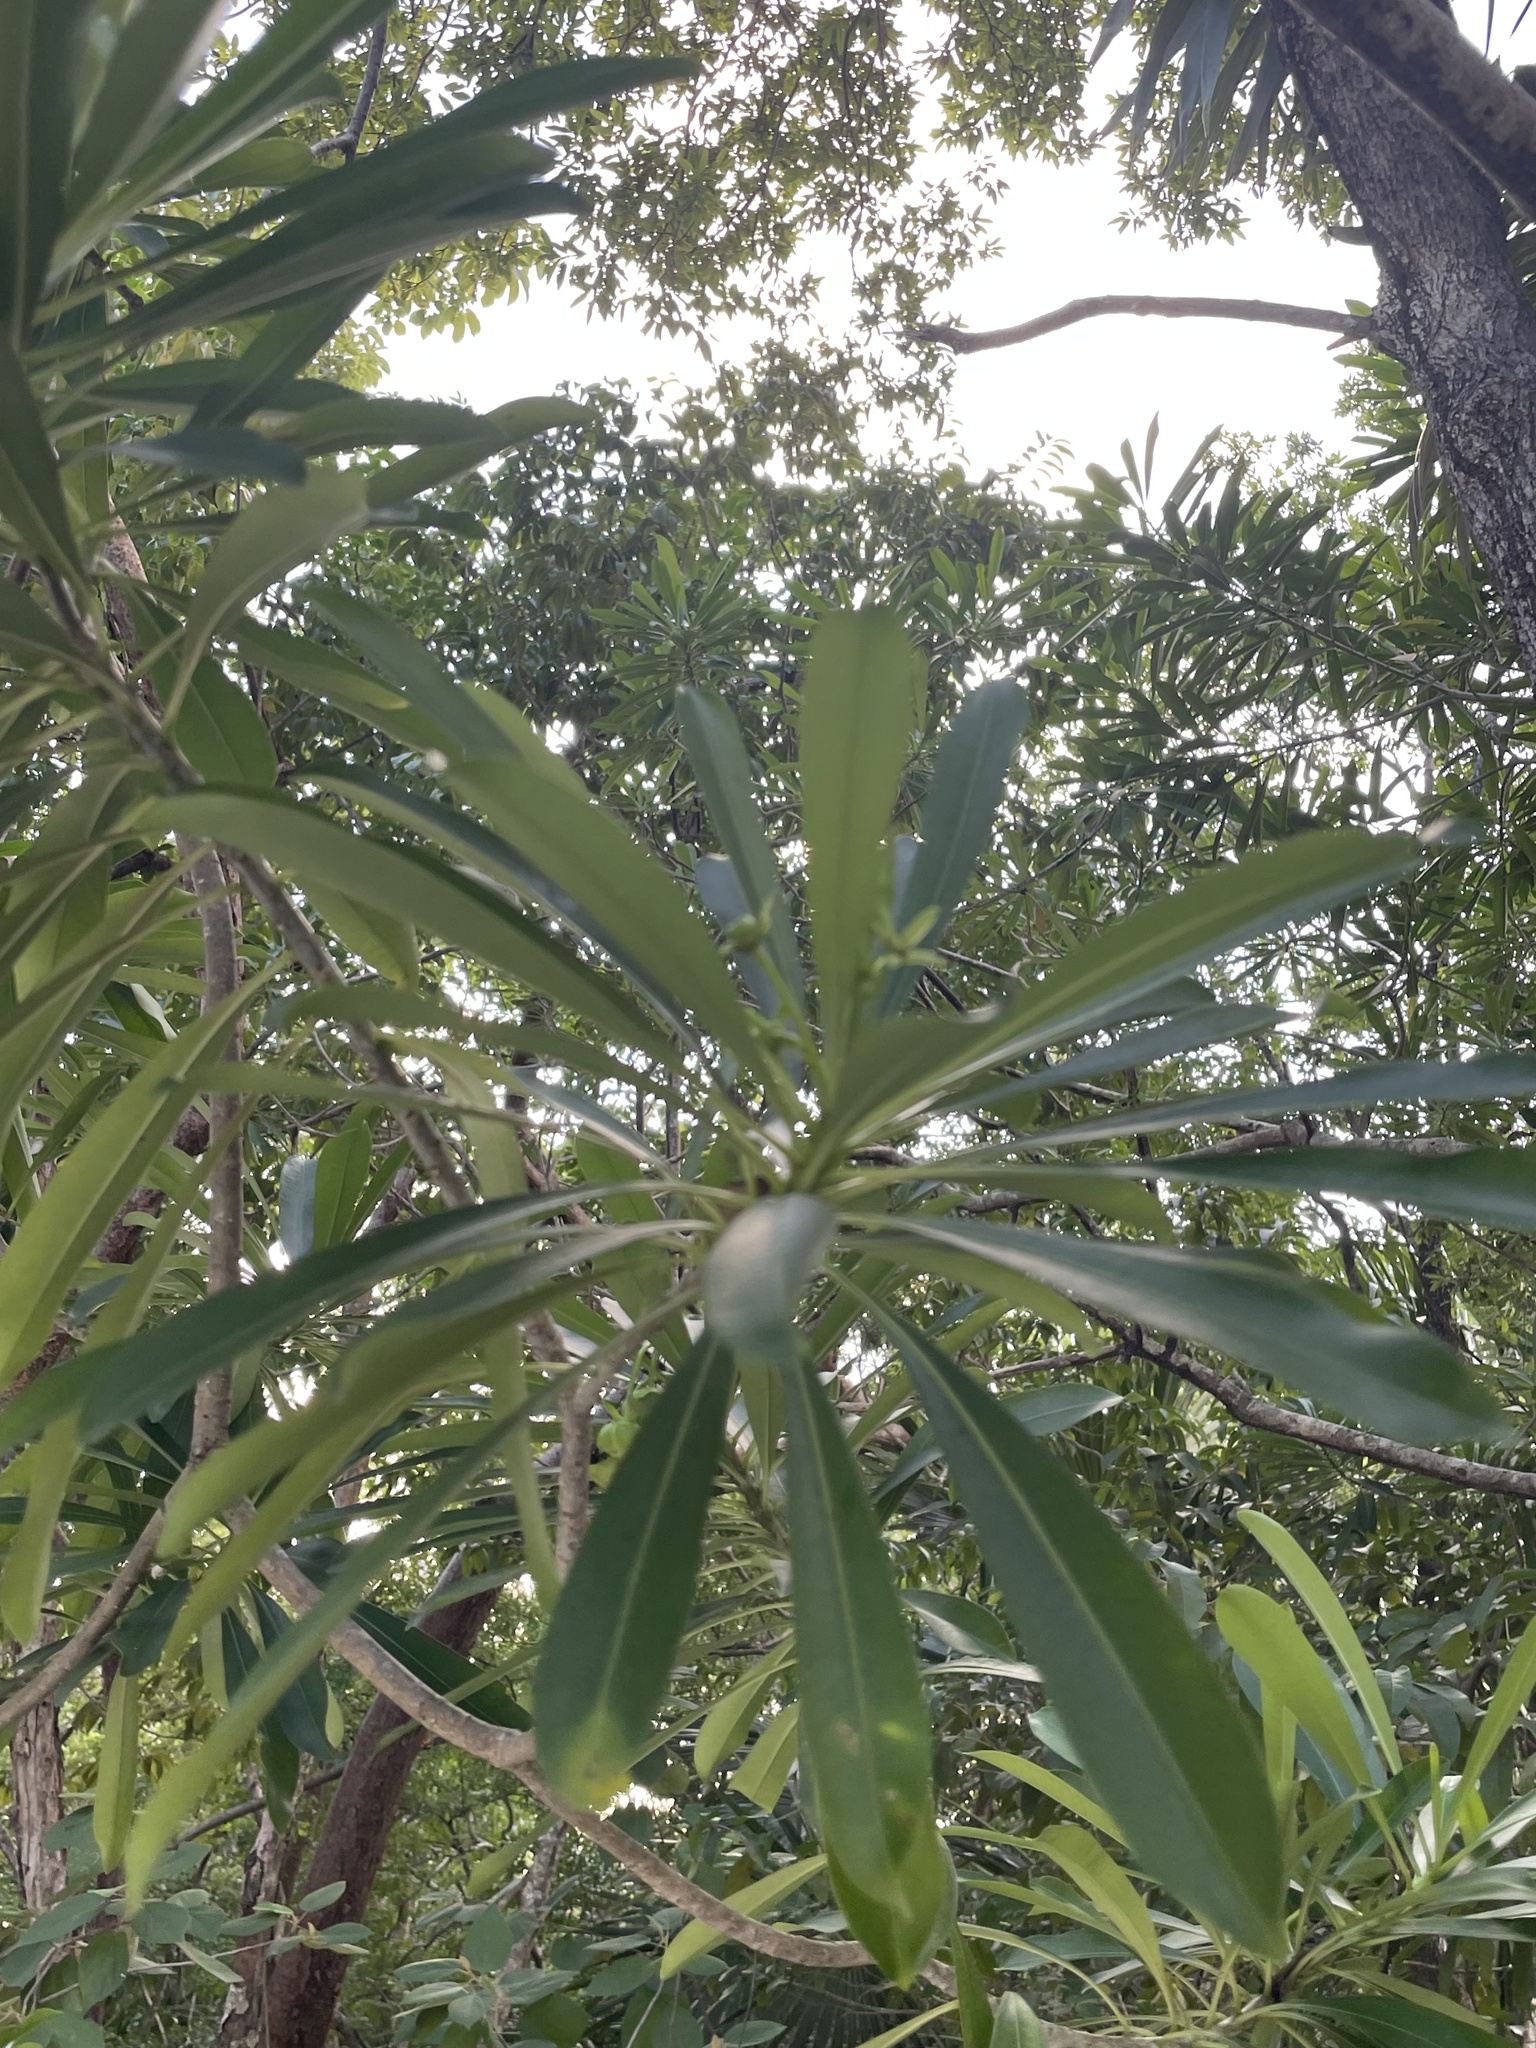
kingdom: Plantae
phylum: Tracheophyta
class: Magnoliopsida
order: Gentianales
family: Apocynaceae
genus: Cascabela
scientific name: Cascabela gaumeri
